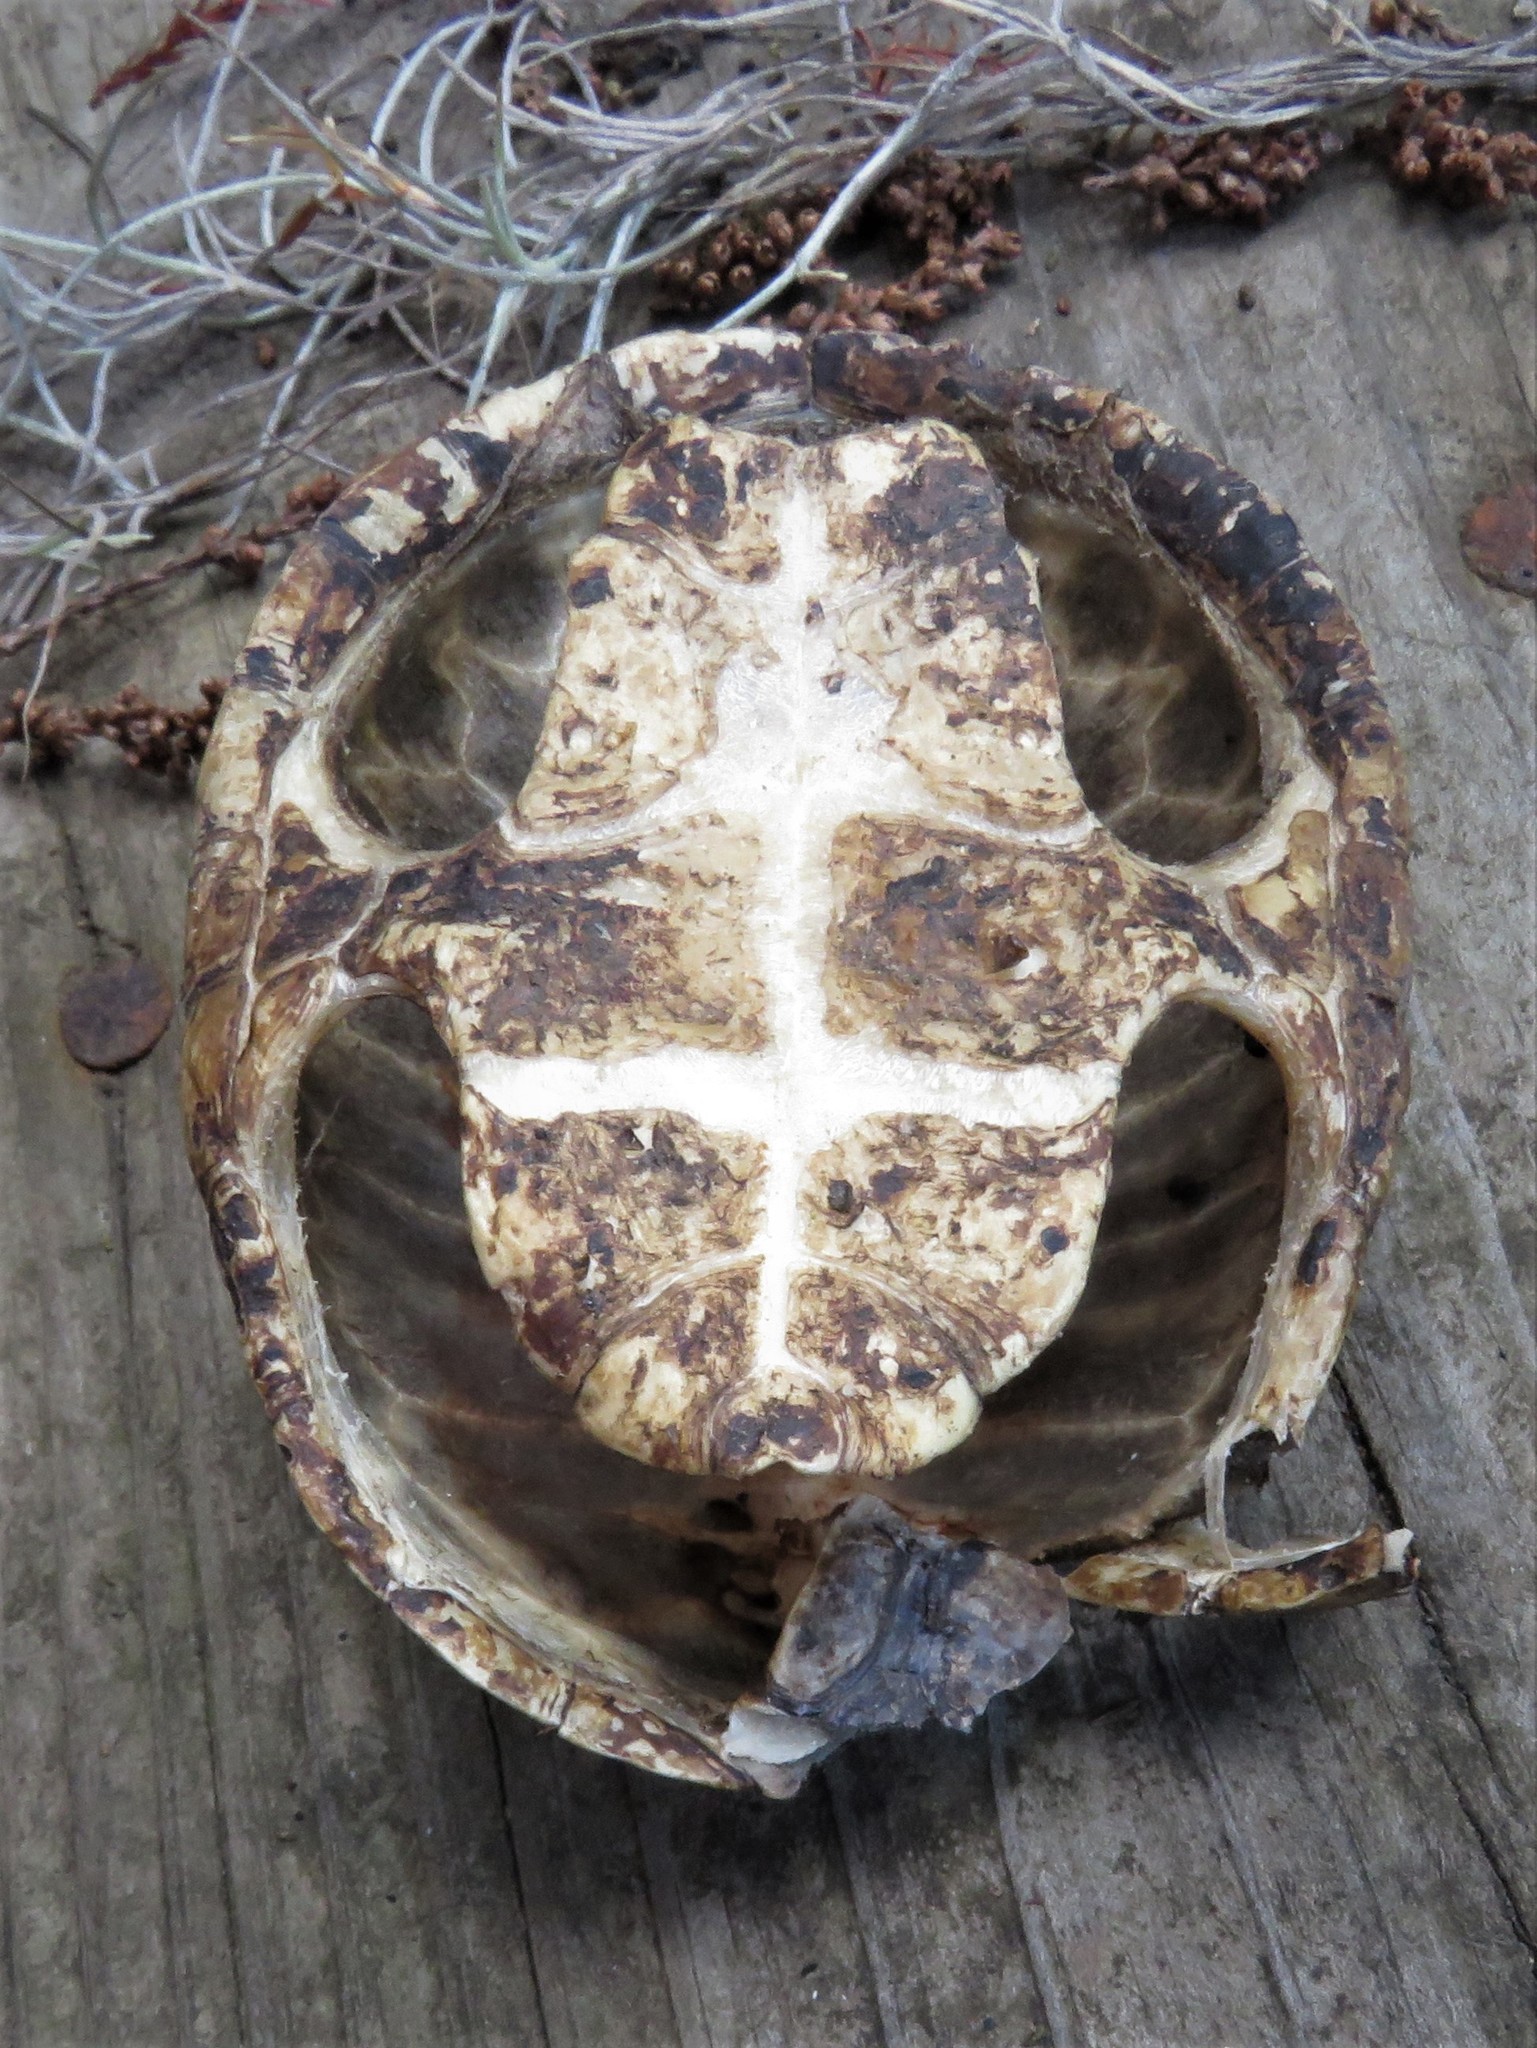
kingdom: Animalia
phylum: Chordata
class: Testudines
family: Kinosternidae
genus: Sternotherus
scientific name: Sternotherus
